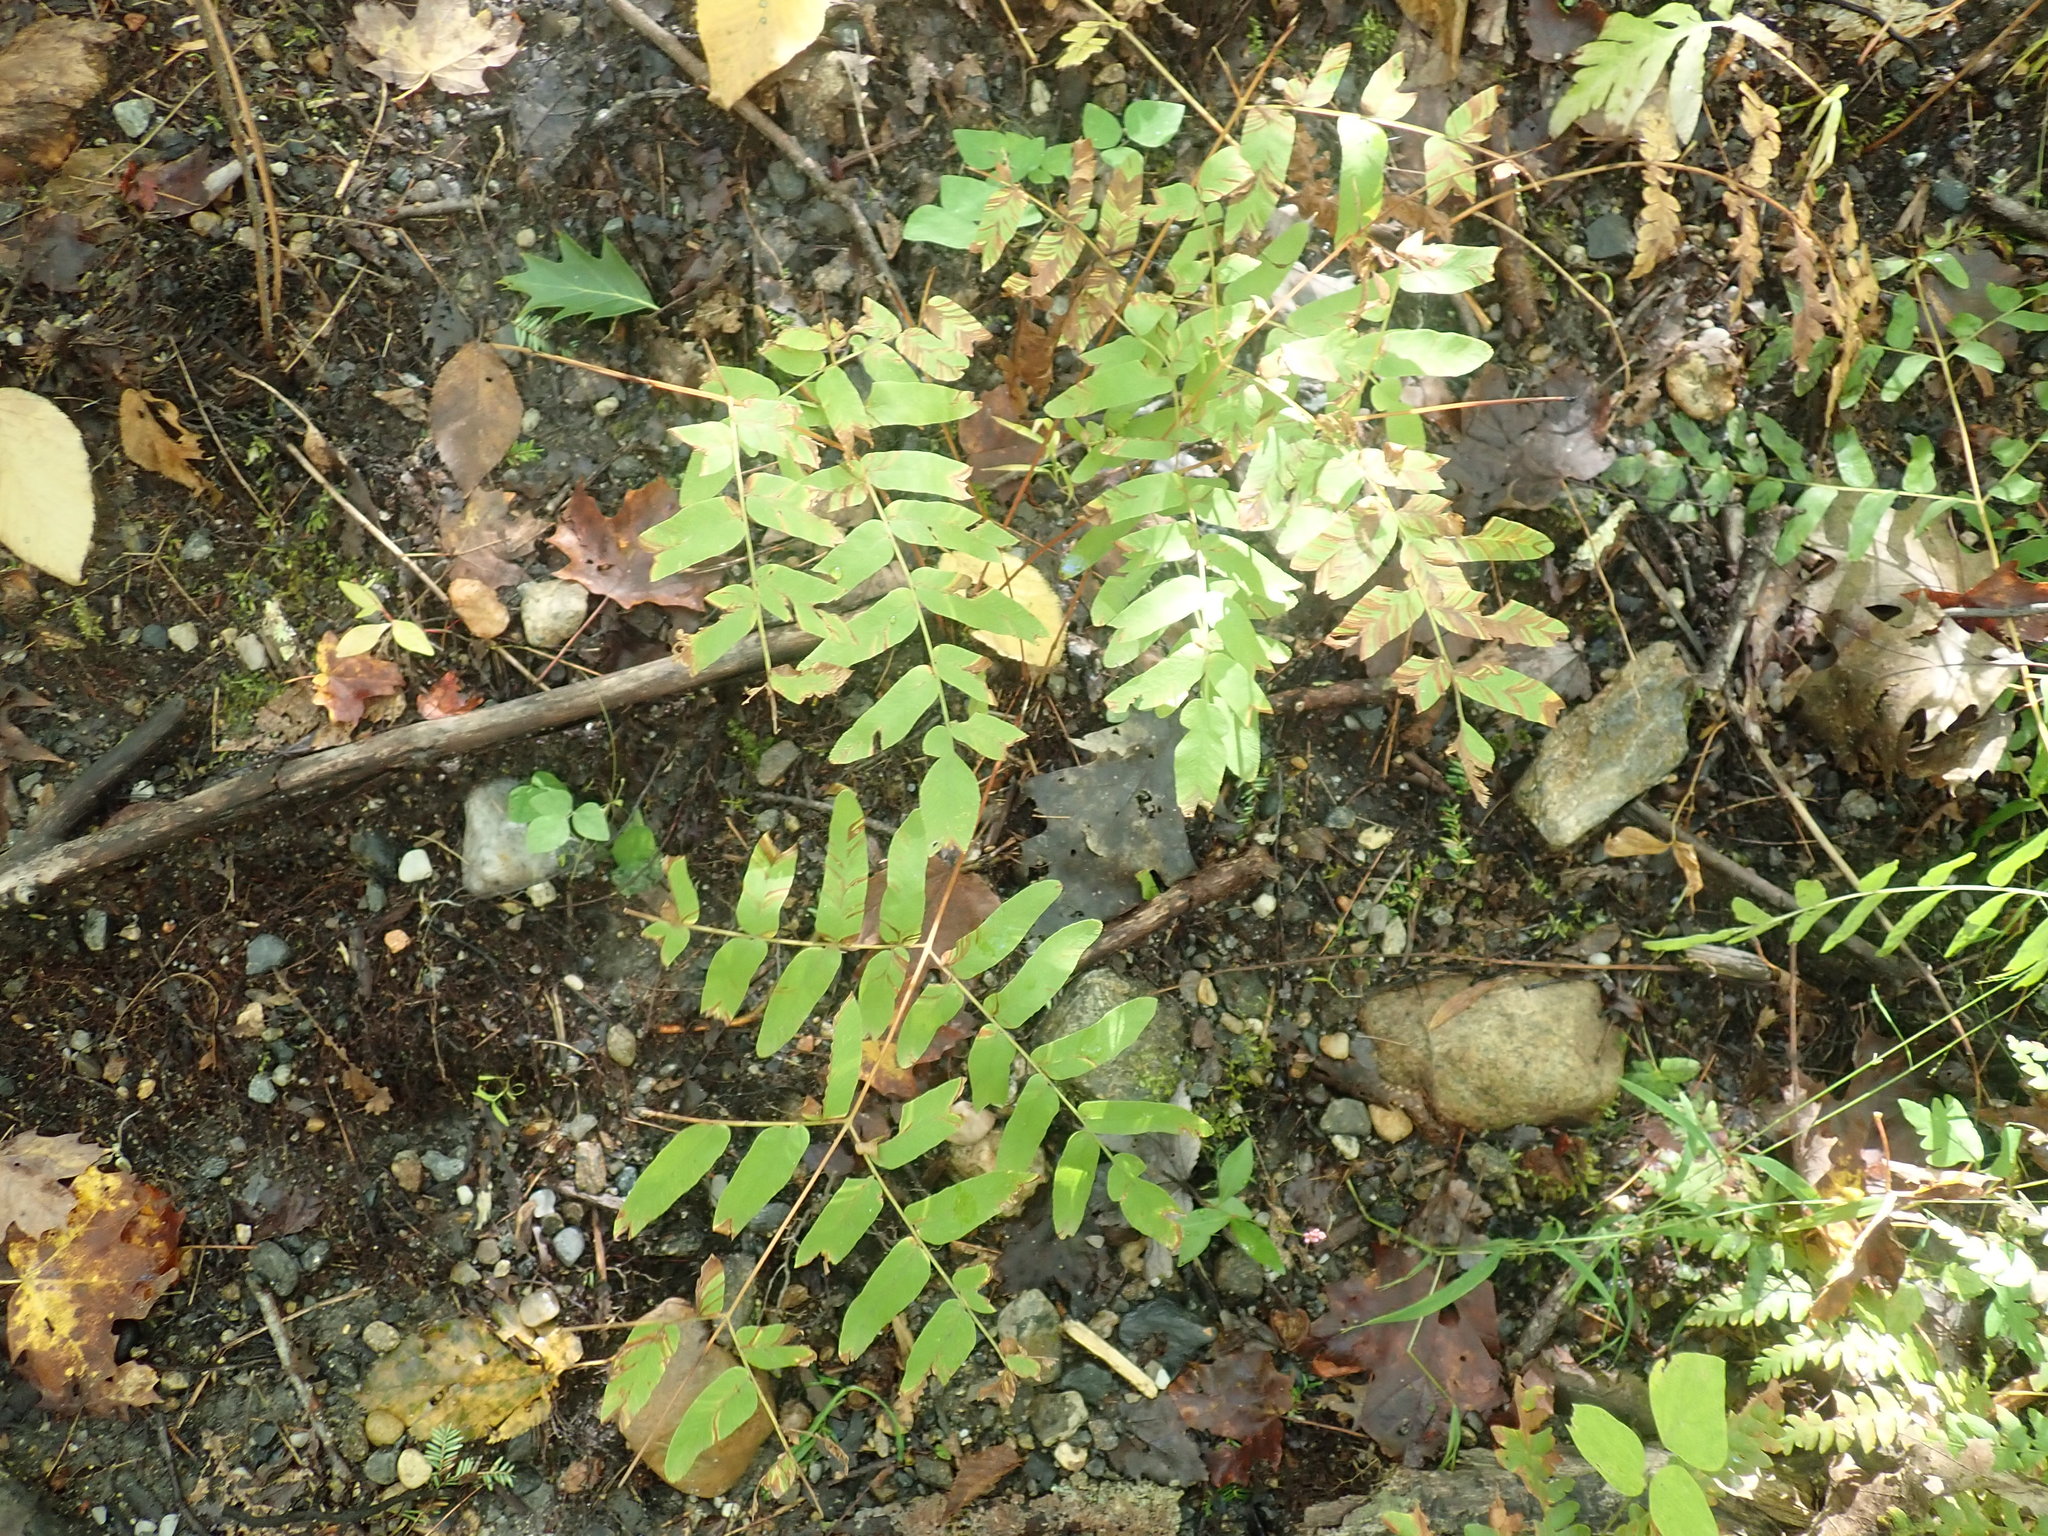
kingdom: Plantae
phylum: Tracheophyta
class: Polypodiopsida
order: Osmundales
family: Osmundaceae
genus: Osmunda
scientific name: Osmunda spectabilis
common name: American royal fern
